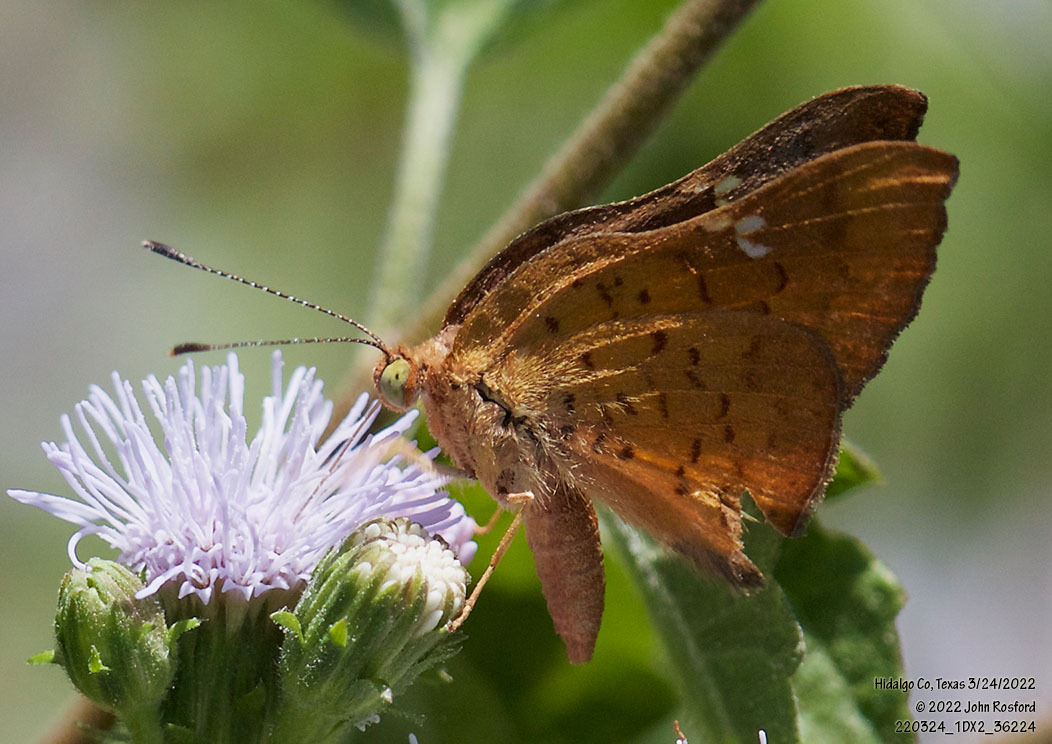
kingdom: Animalia
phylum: Arthropoda
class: Insecta
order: Lepidoptera
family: Riodinidae
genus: Curvie
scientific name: Curvie emesia
